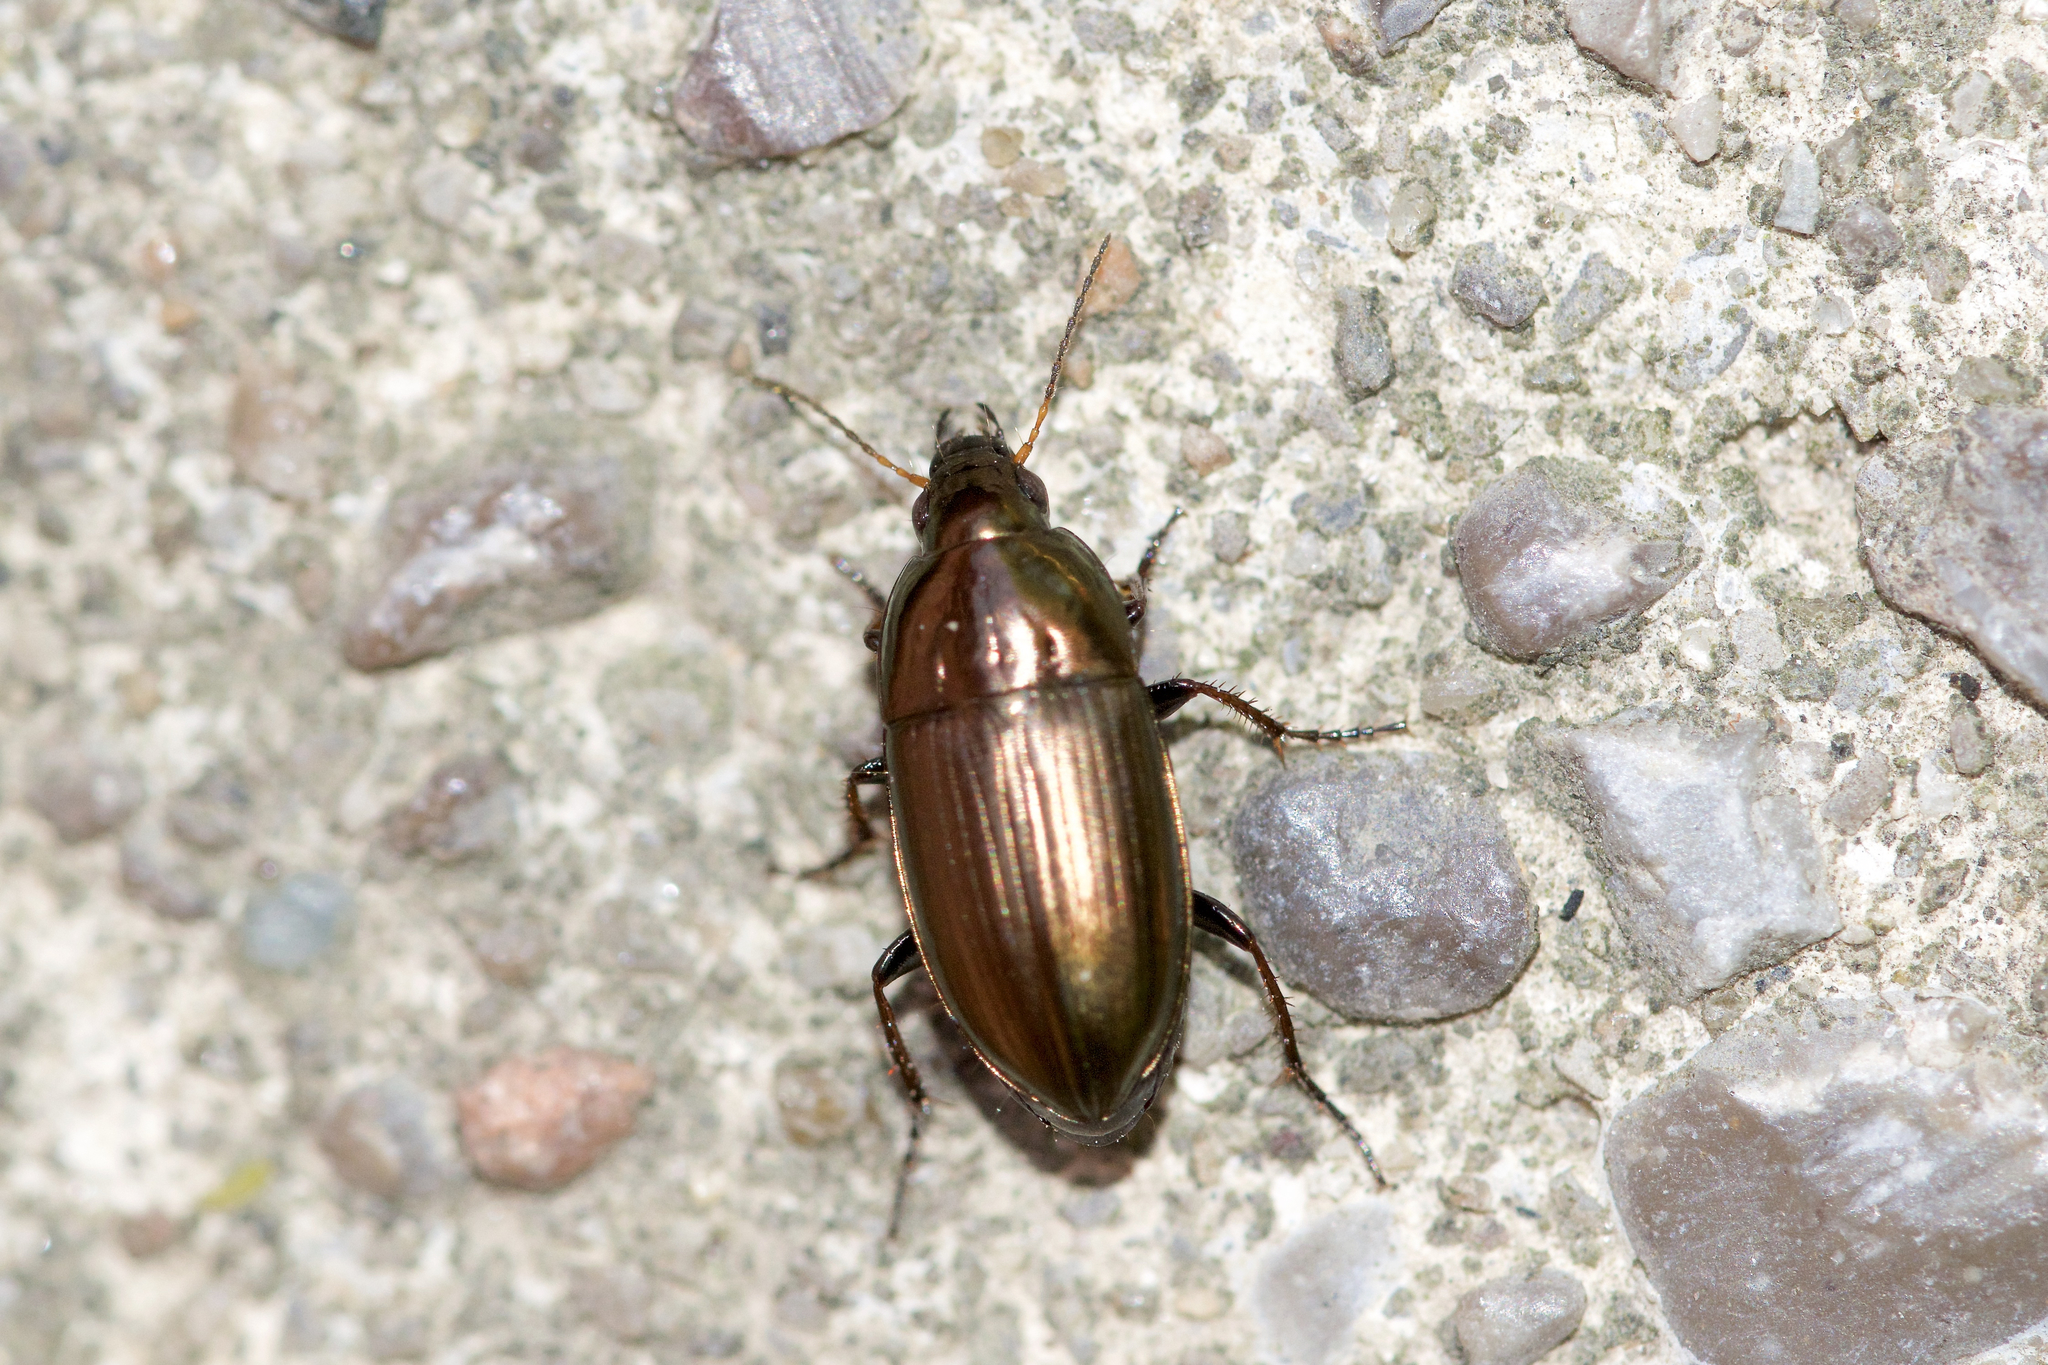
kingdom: Animalia
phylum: Arthropoda
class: Insecta
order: Coleoptera
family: Carabidae
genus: Amara
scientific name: Amara aenea
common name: Common sun beetle
